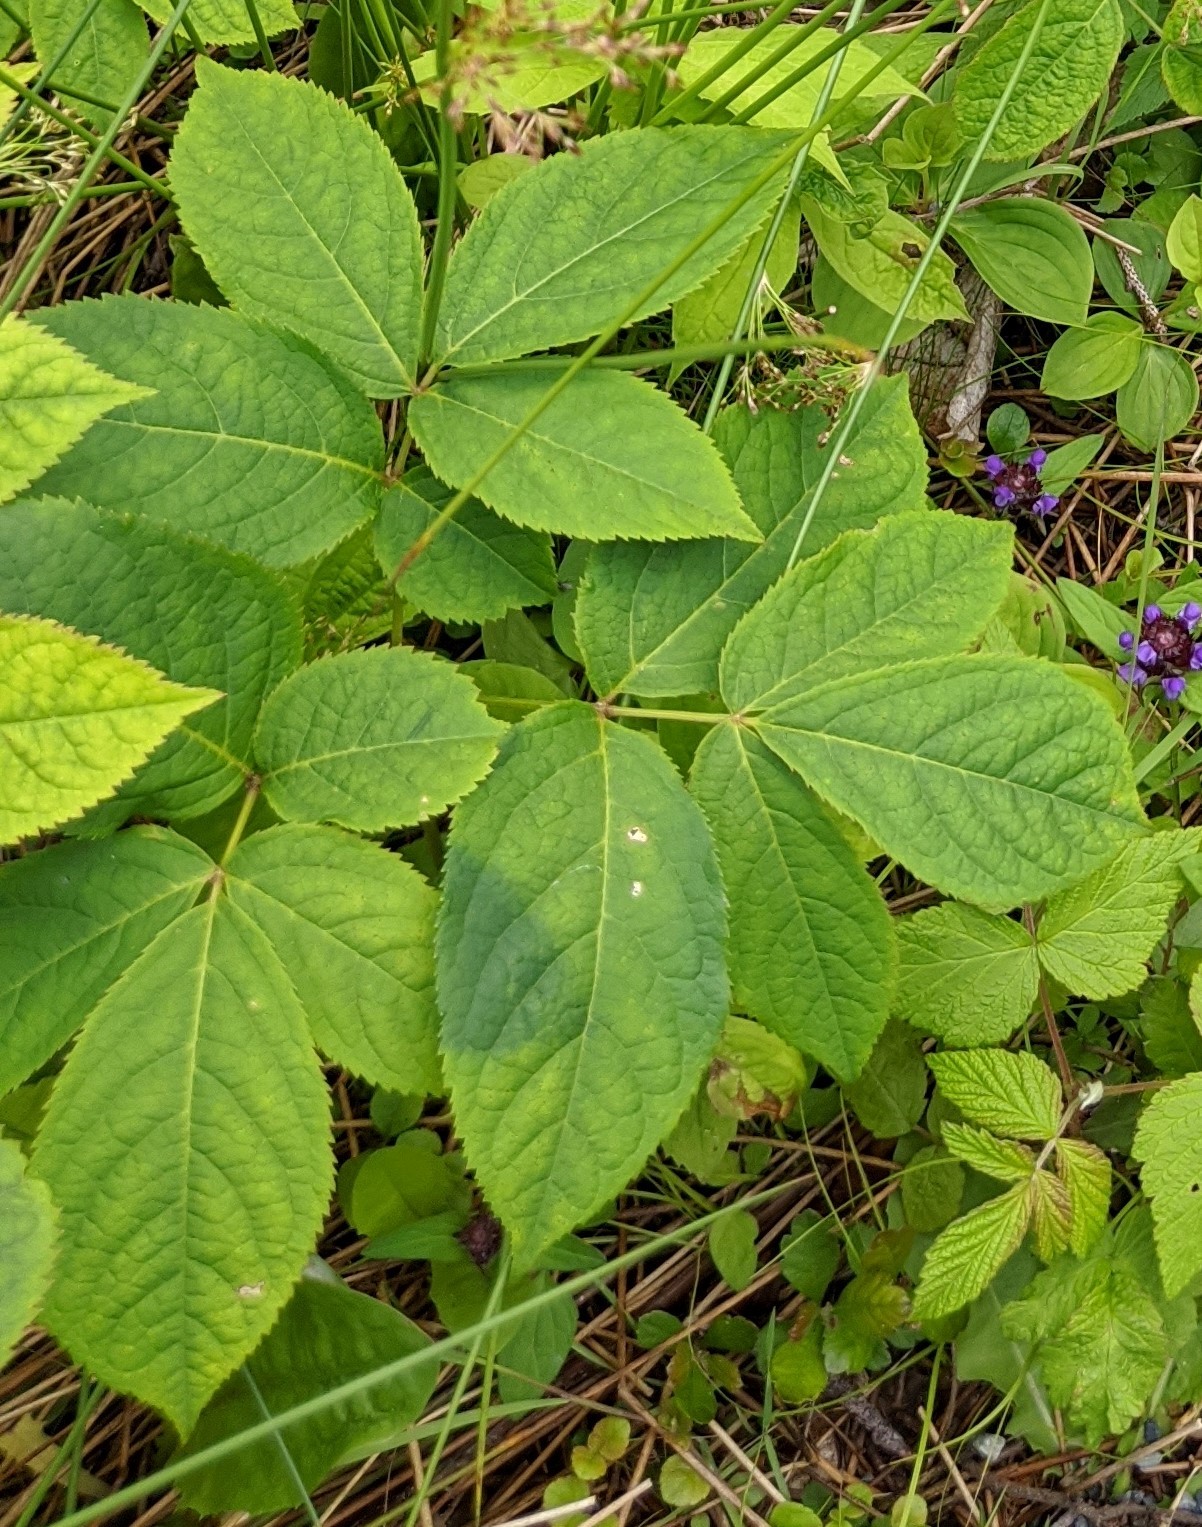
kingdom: Plantae
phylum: Tracheophyta
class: Magnoliopsida
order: Apiales
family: Araliaceae
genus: Aralia
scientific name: Aralia nudicaulis
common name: Wild sarsaparilla
